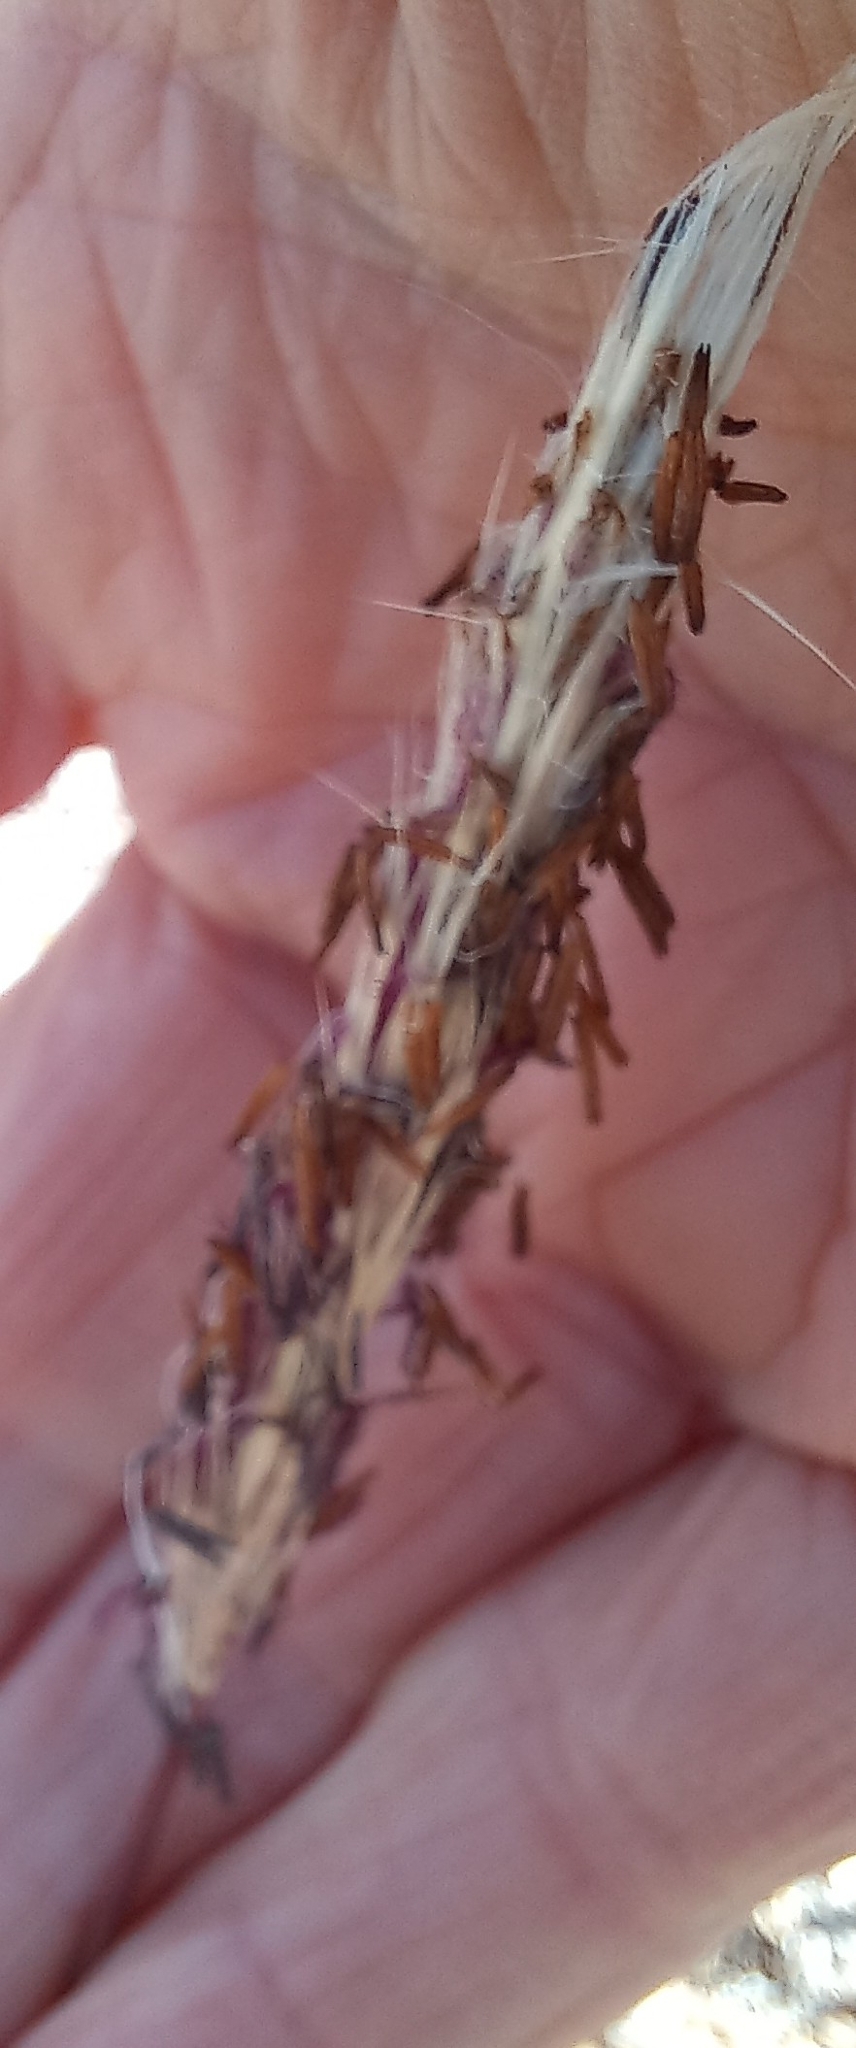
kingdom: Plantae
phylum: Tracheophyta
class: Liliopsida
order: Poales
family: Poaceae
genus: Imperata
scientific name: Imperata cylindrica
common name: Cogongrass
